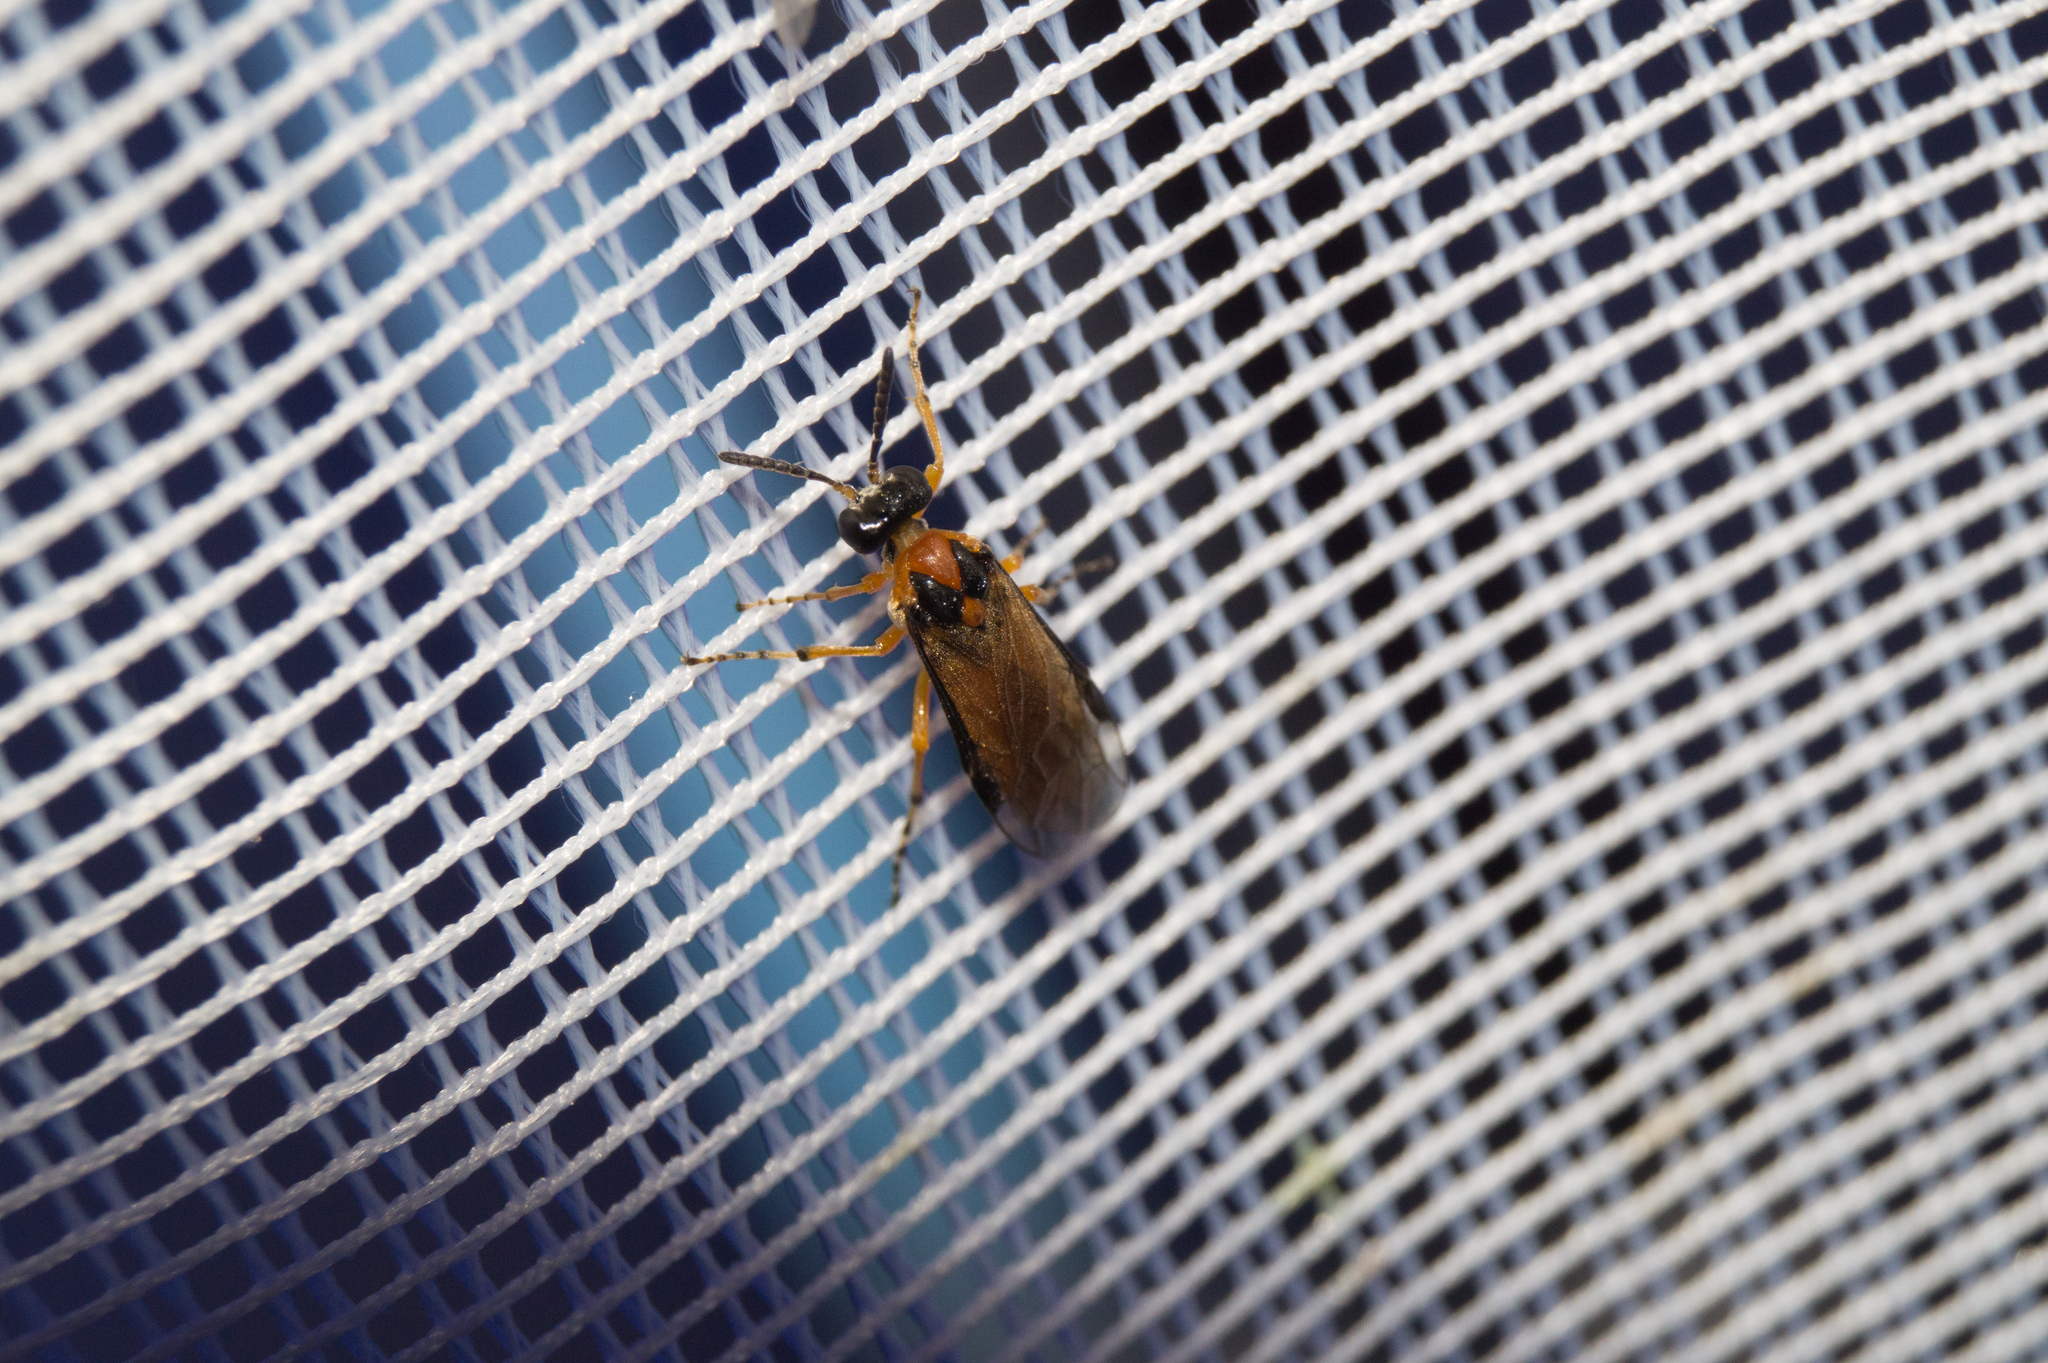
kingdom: Animalia
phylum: Arthropoda
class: Insecta
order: Hymenoptera
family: Tenthredinidae
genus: Athalia
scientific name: Athalia rosae
